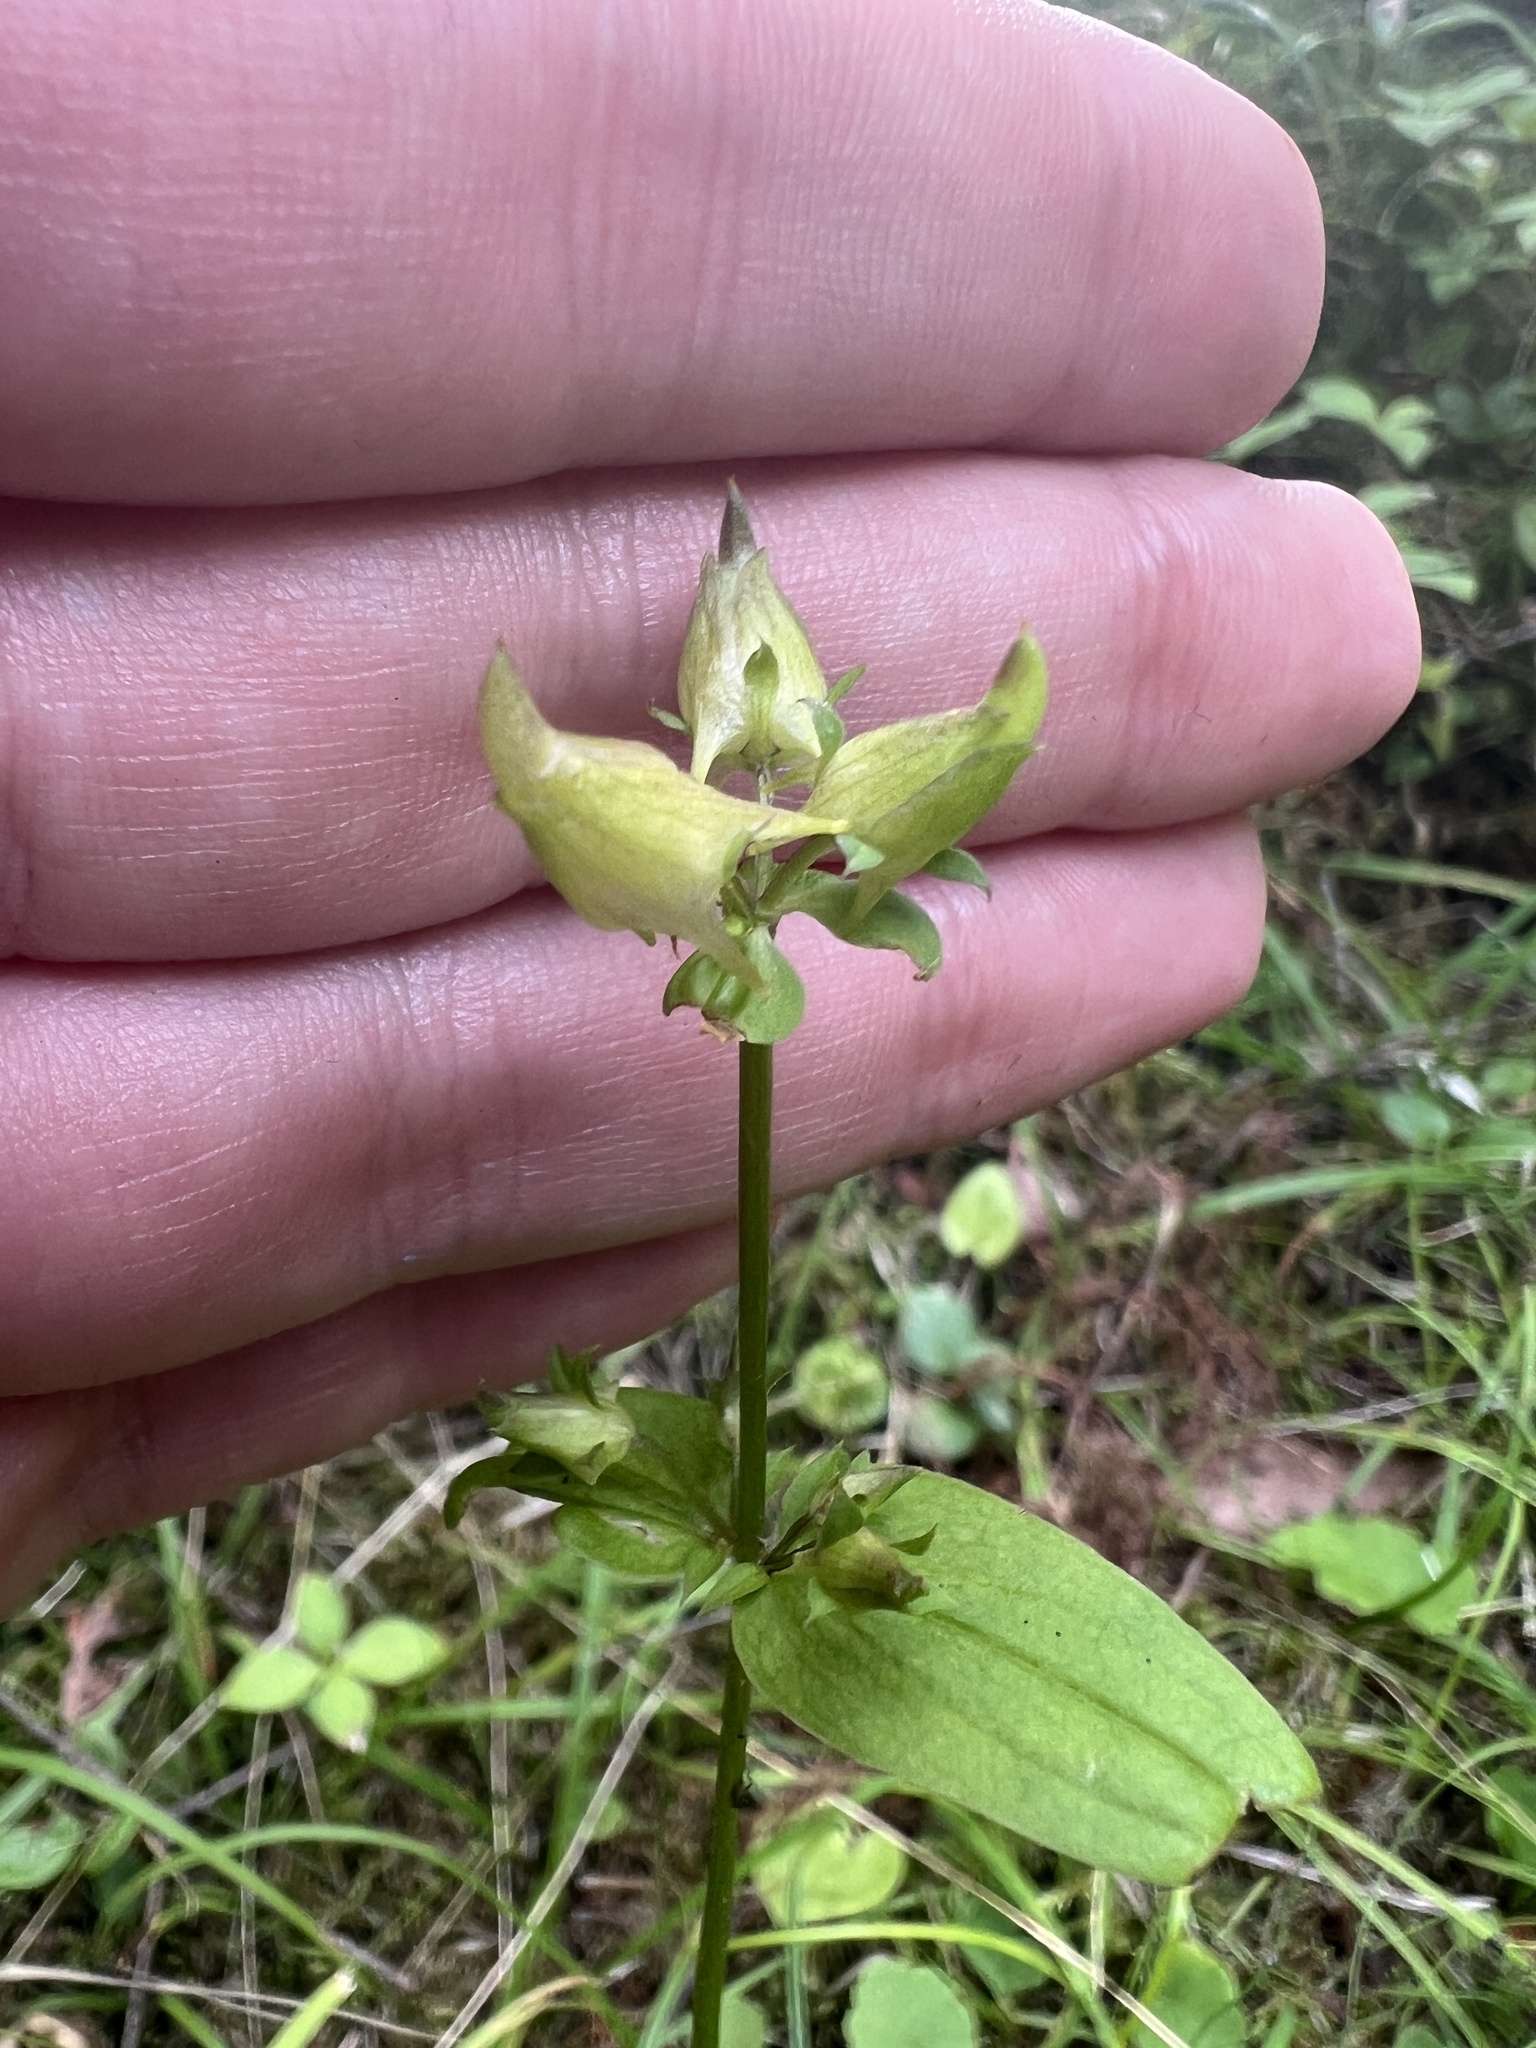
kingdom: Plantae
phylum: Tracheophyta
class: Magnoliopsida
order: Gentianales
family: Gentianaceae
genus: Halenia
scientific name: Halenia deflexa
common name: American spurred gentian
